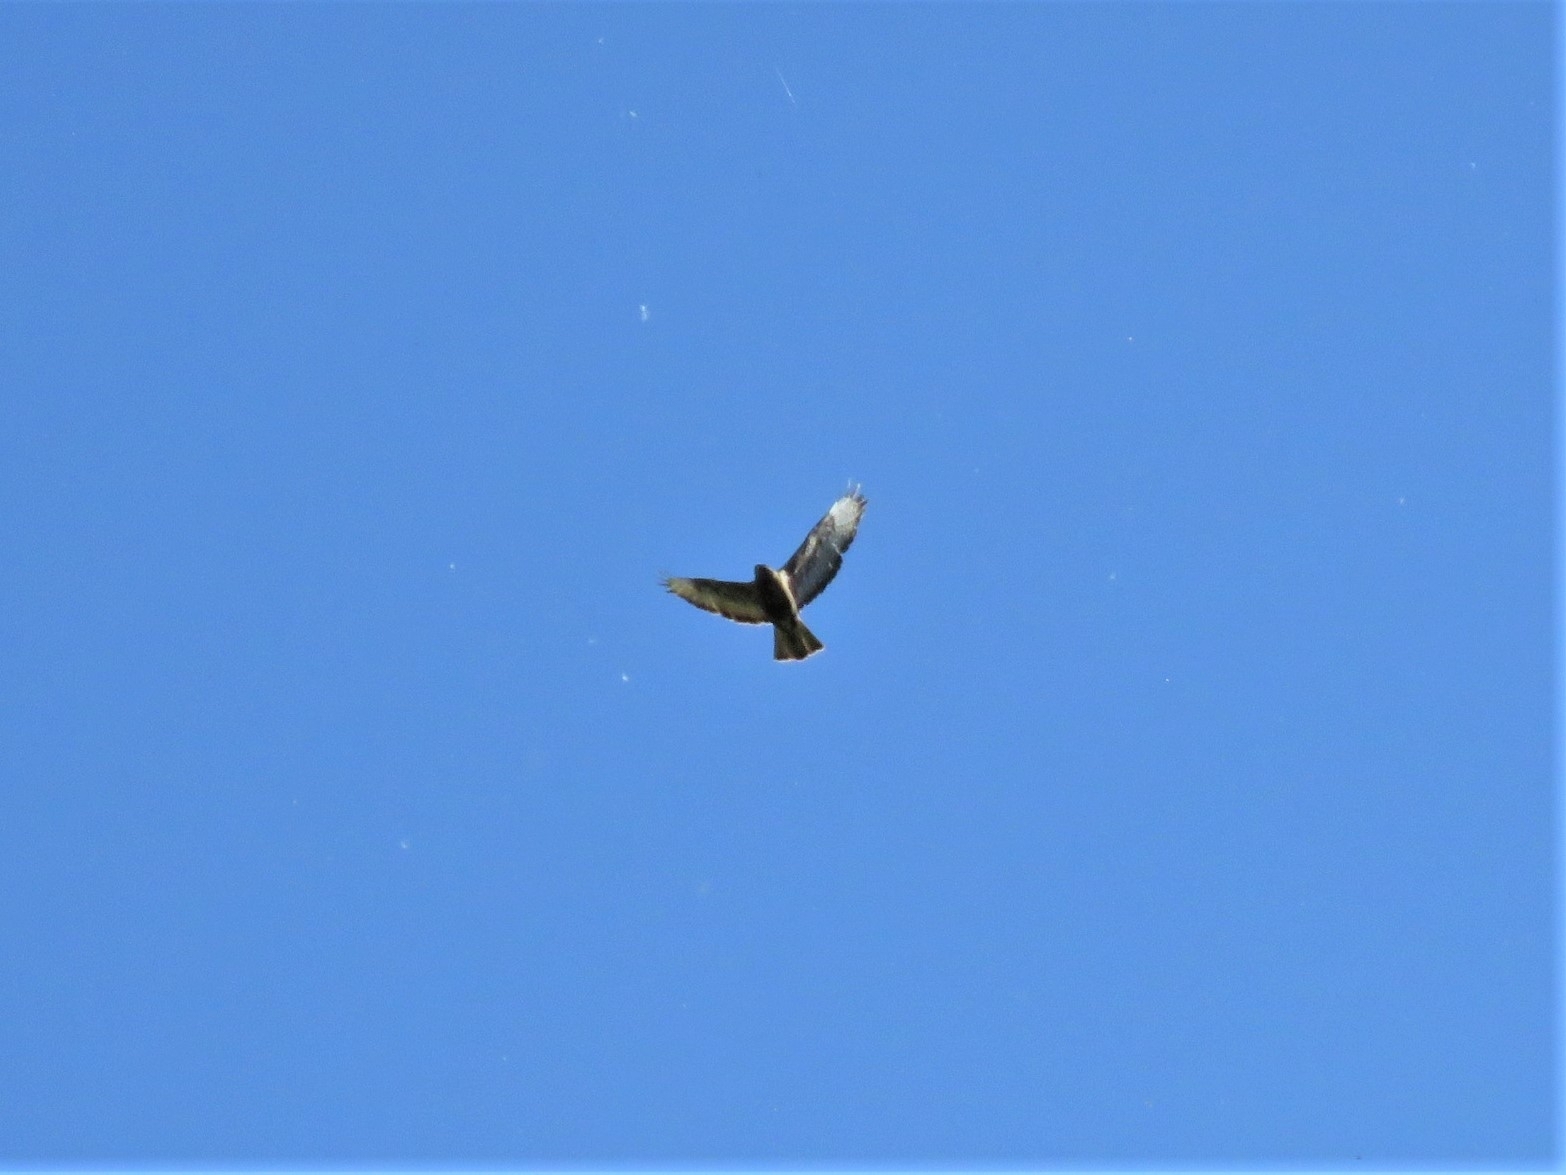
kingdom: Animalia
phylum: Chordata
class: Aves
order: Accipitriformes
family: Accipitridae
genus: Buteo
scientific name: Buteo buteo
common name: Common buzzard
